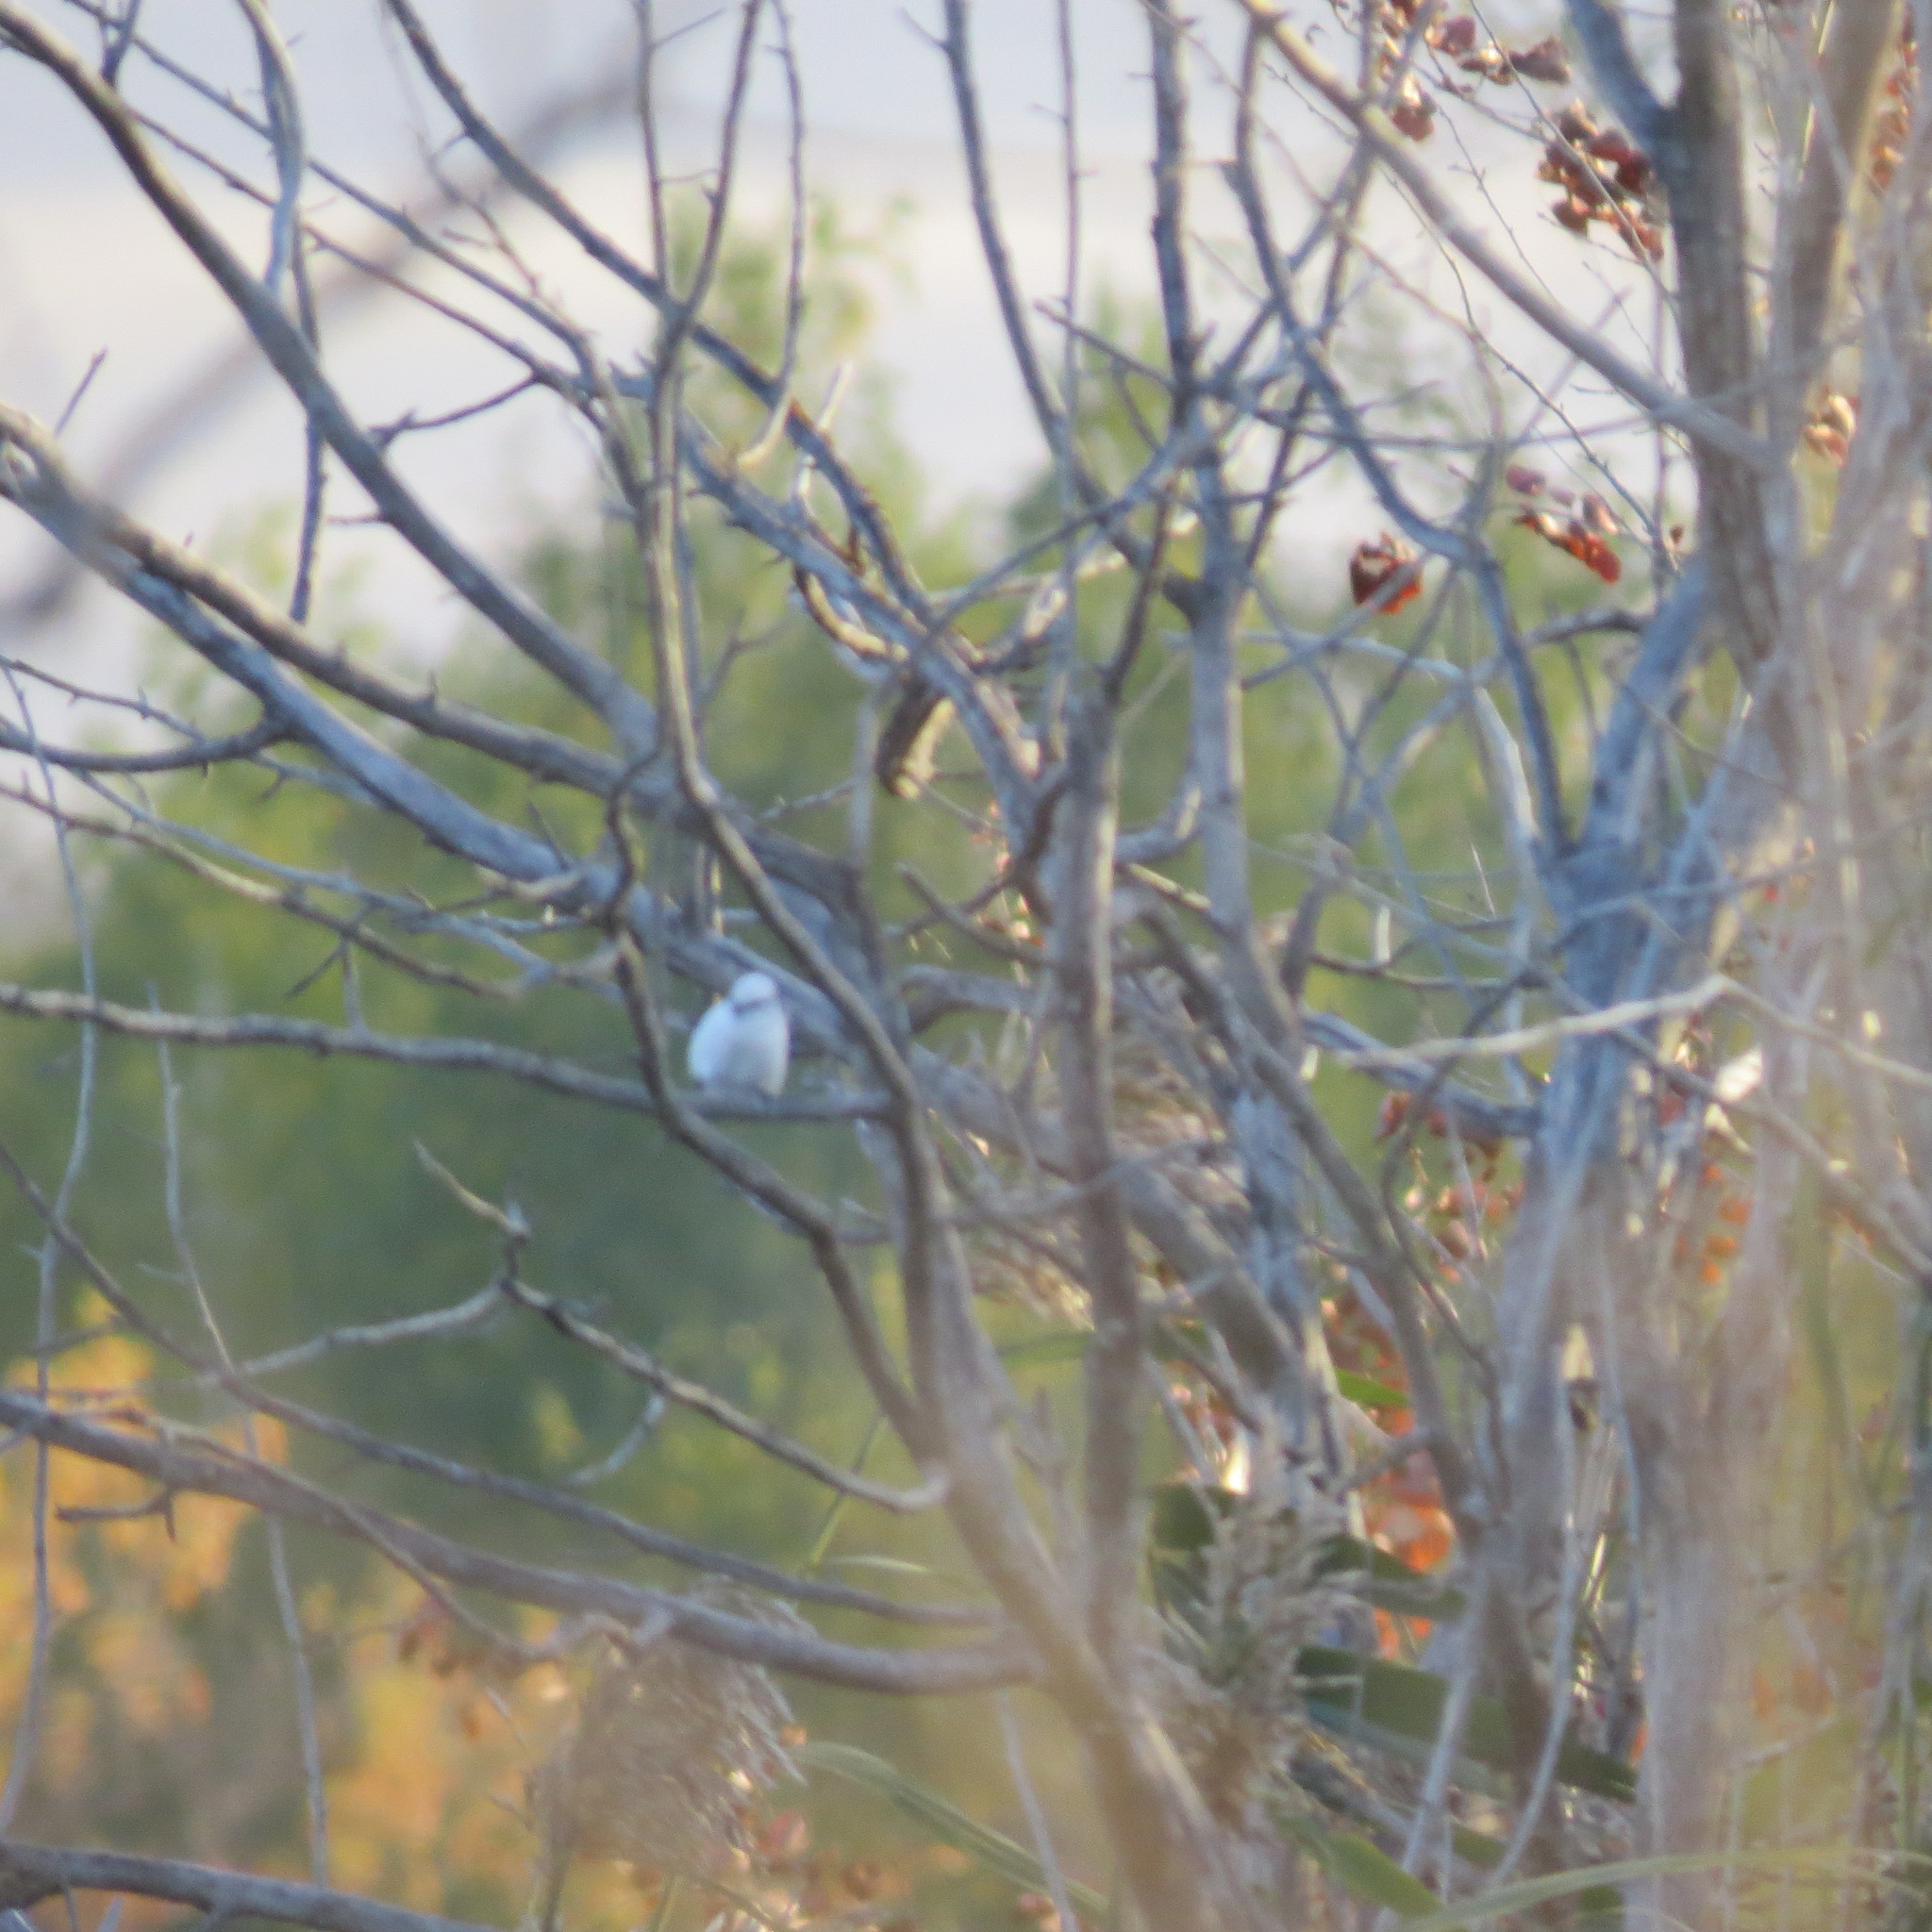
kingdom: Animalia
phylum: Chordata
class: Aves
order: Passeriformes
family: Paridae
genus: Cyanistes
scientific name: Cyanistes cyanus
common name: Azure tit
